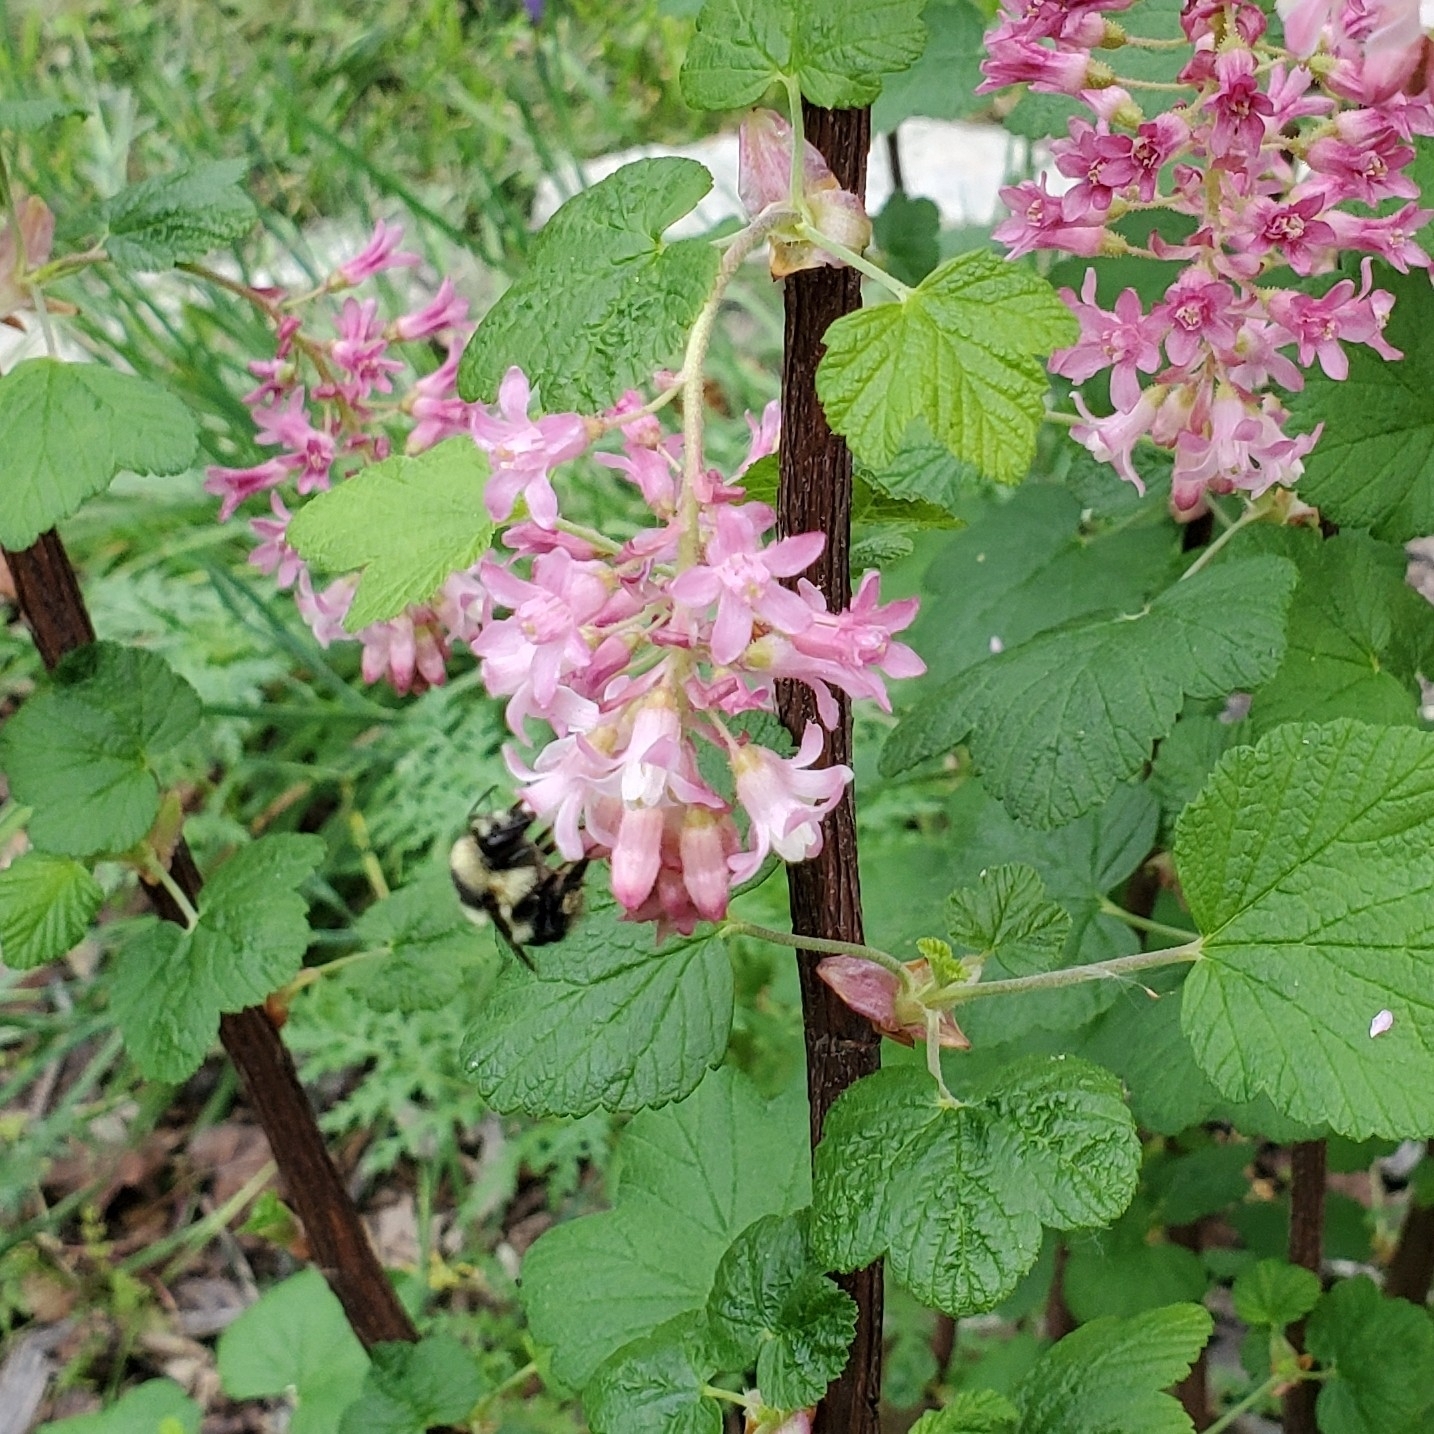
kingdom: Animalia
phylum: Arthropoda
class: Insecta
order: Hymenoptera
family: Apidae
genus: Bombus
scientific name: Bombus melanopygus
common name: Black tail bumble bee
